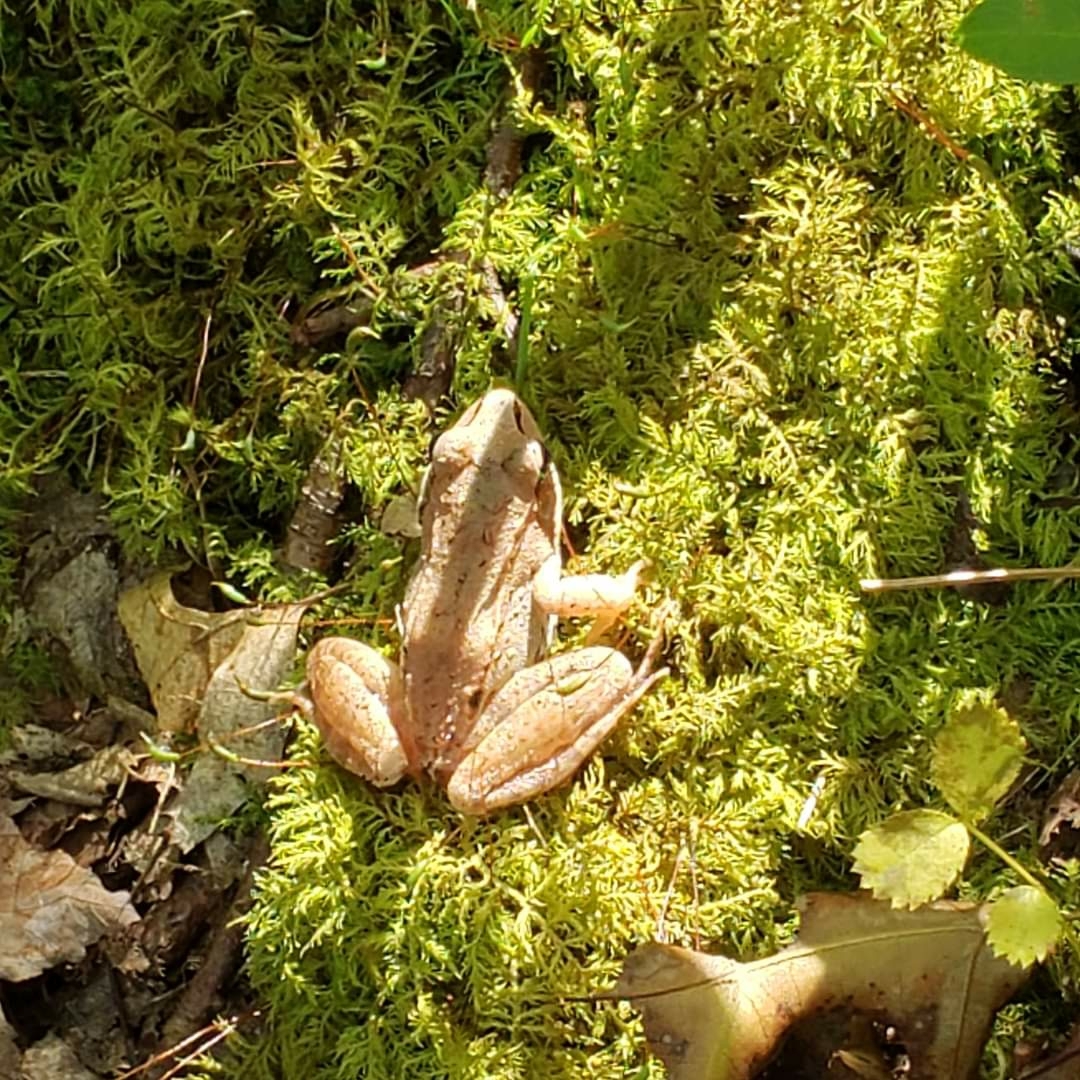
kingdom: Animalia
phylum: Chordata
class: Amphibia
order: Anura
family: Ranidae
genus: Lithobates
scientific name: Lithobates sylvaticus
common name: Wood frog
